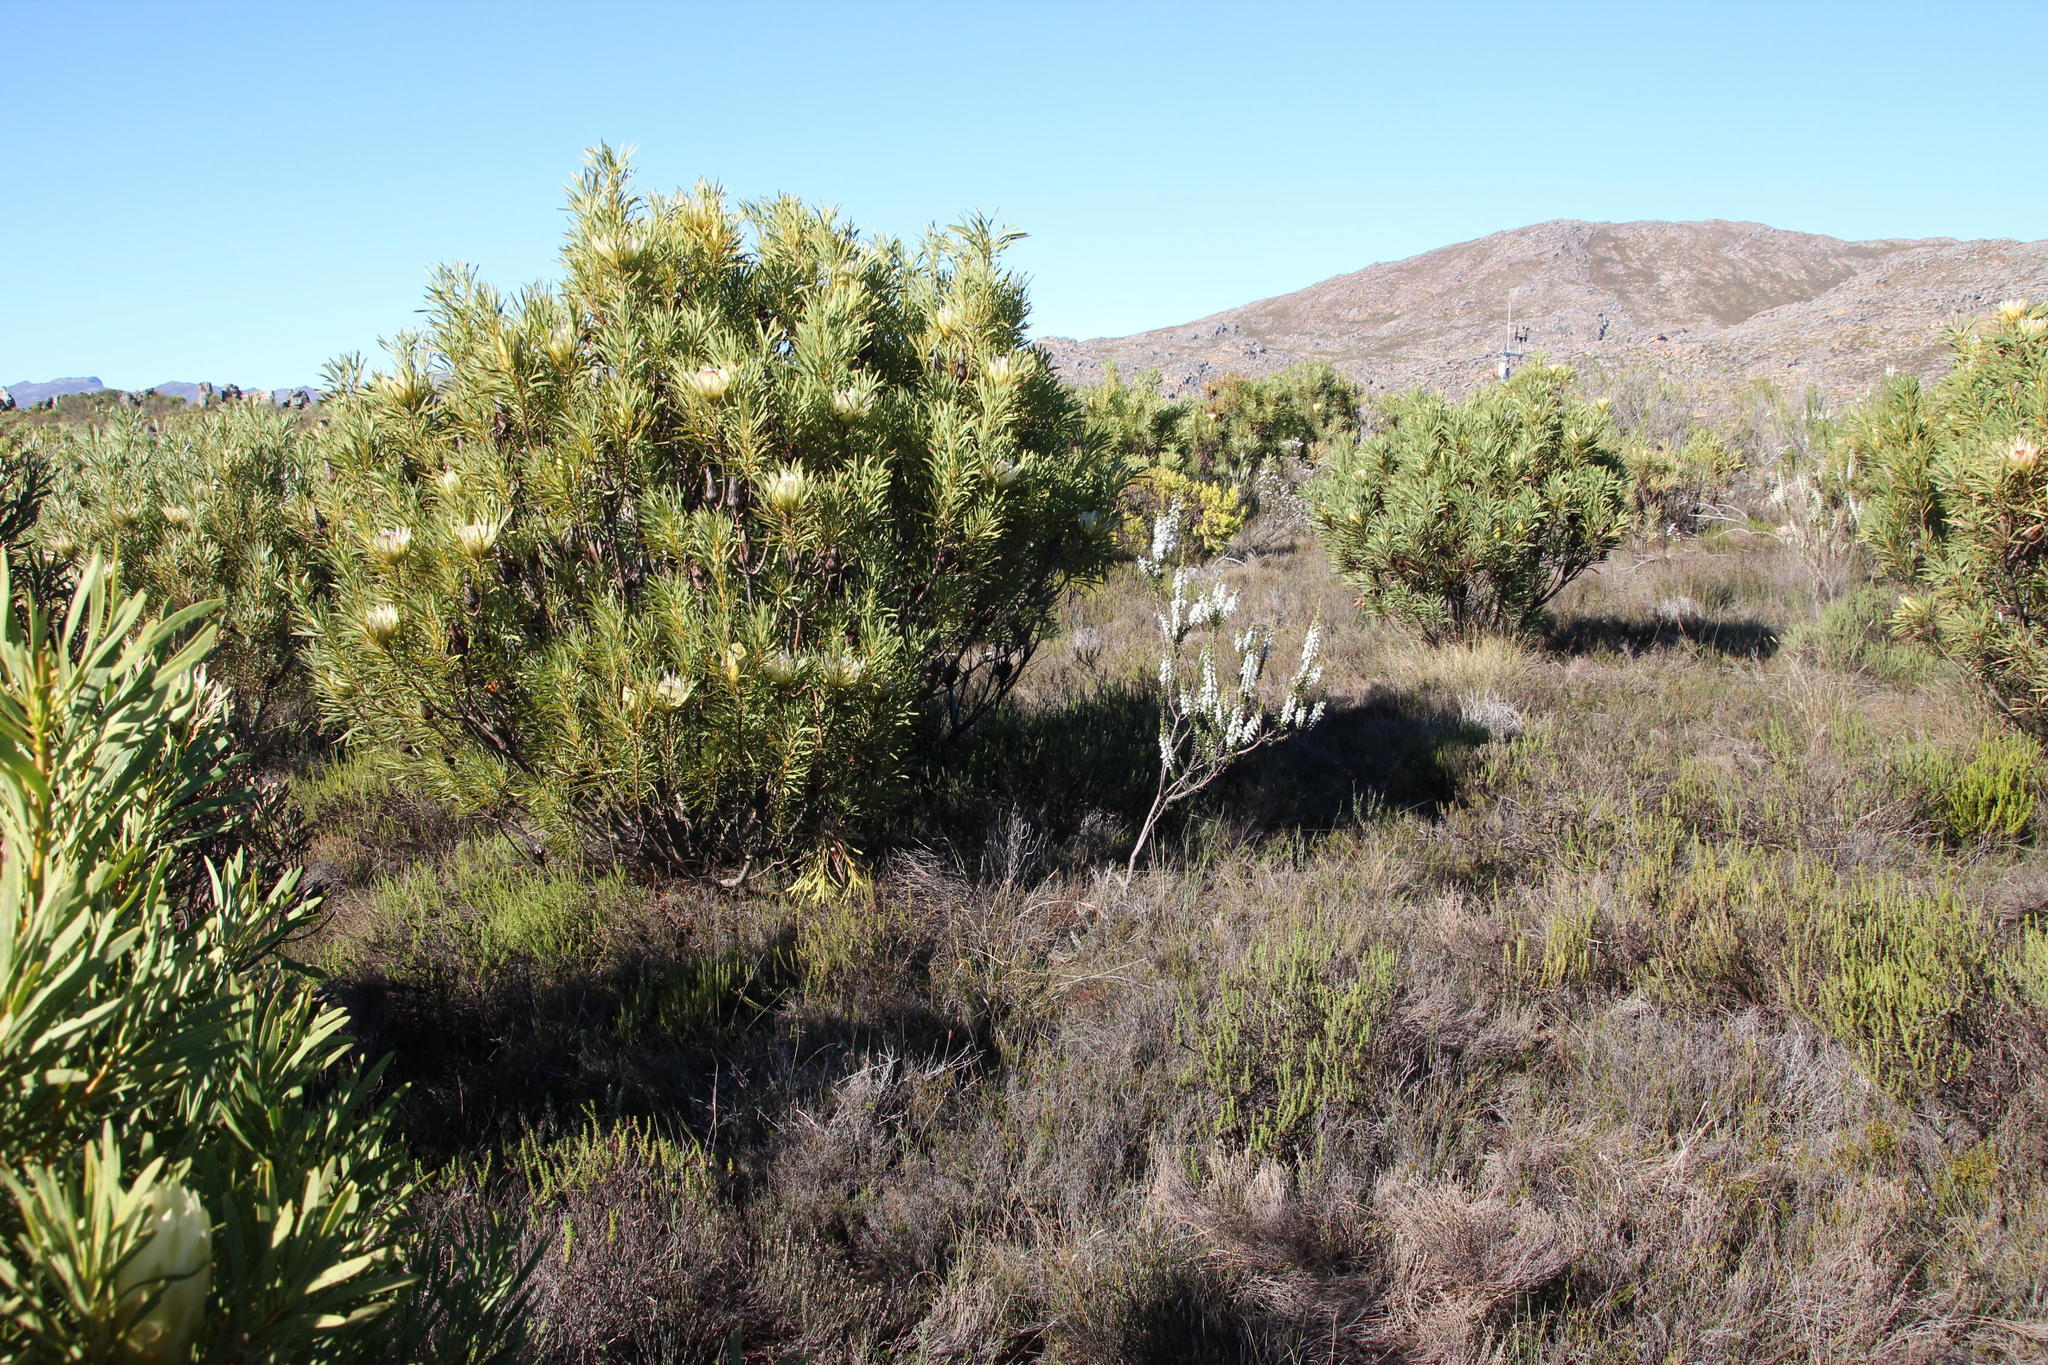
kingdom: Plantae
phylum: Tracheophyta
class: Magnoliopsida
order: Proteales
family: Proteaceae
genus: Protea
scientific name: Protea repens
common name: Sugarbush
